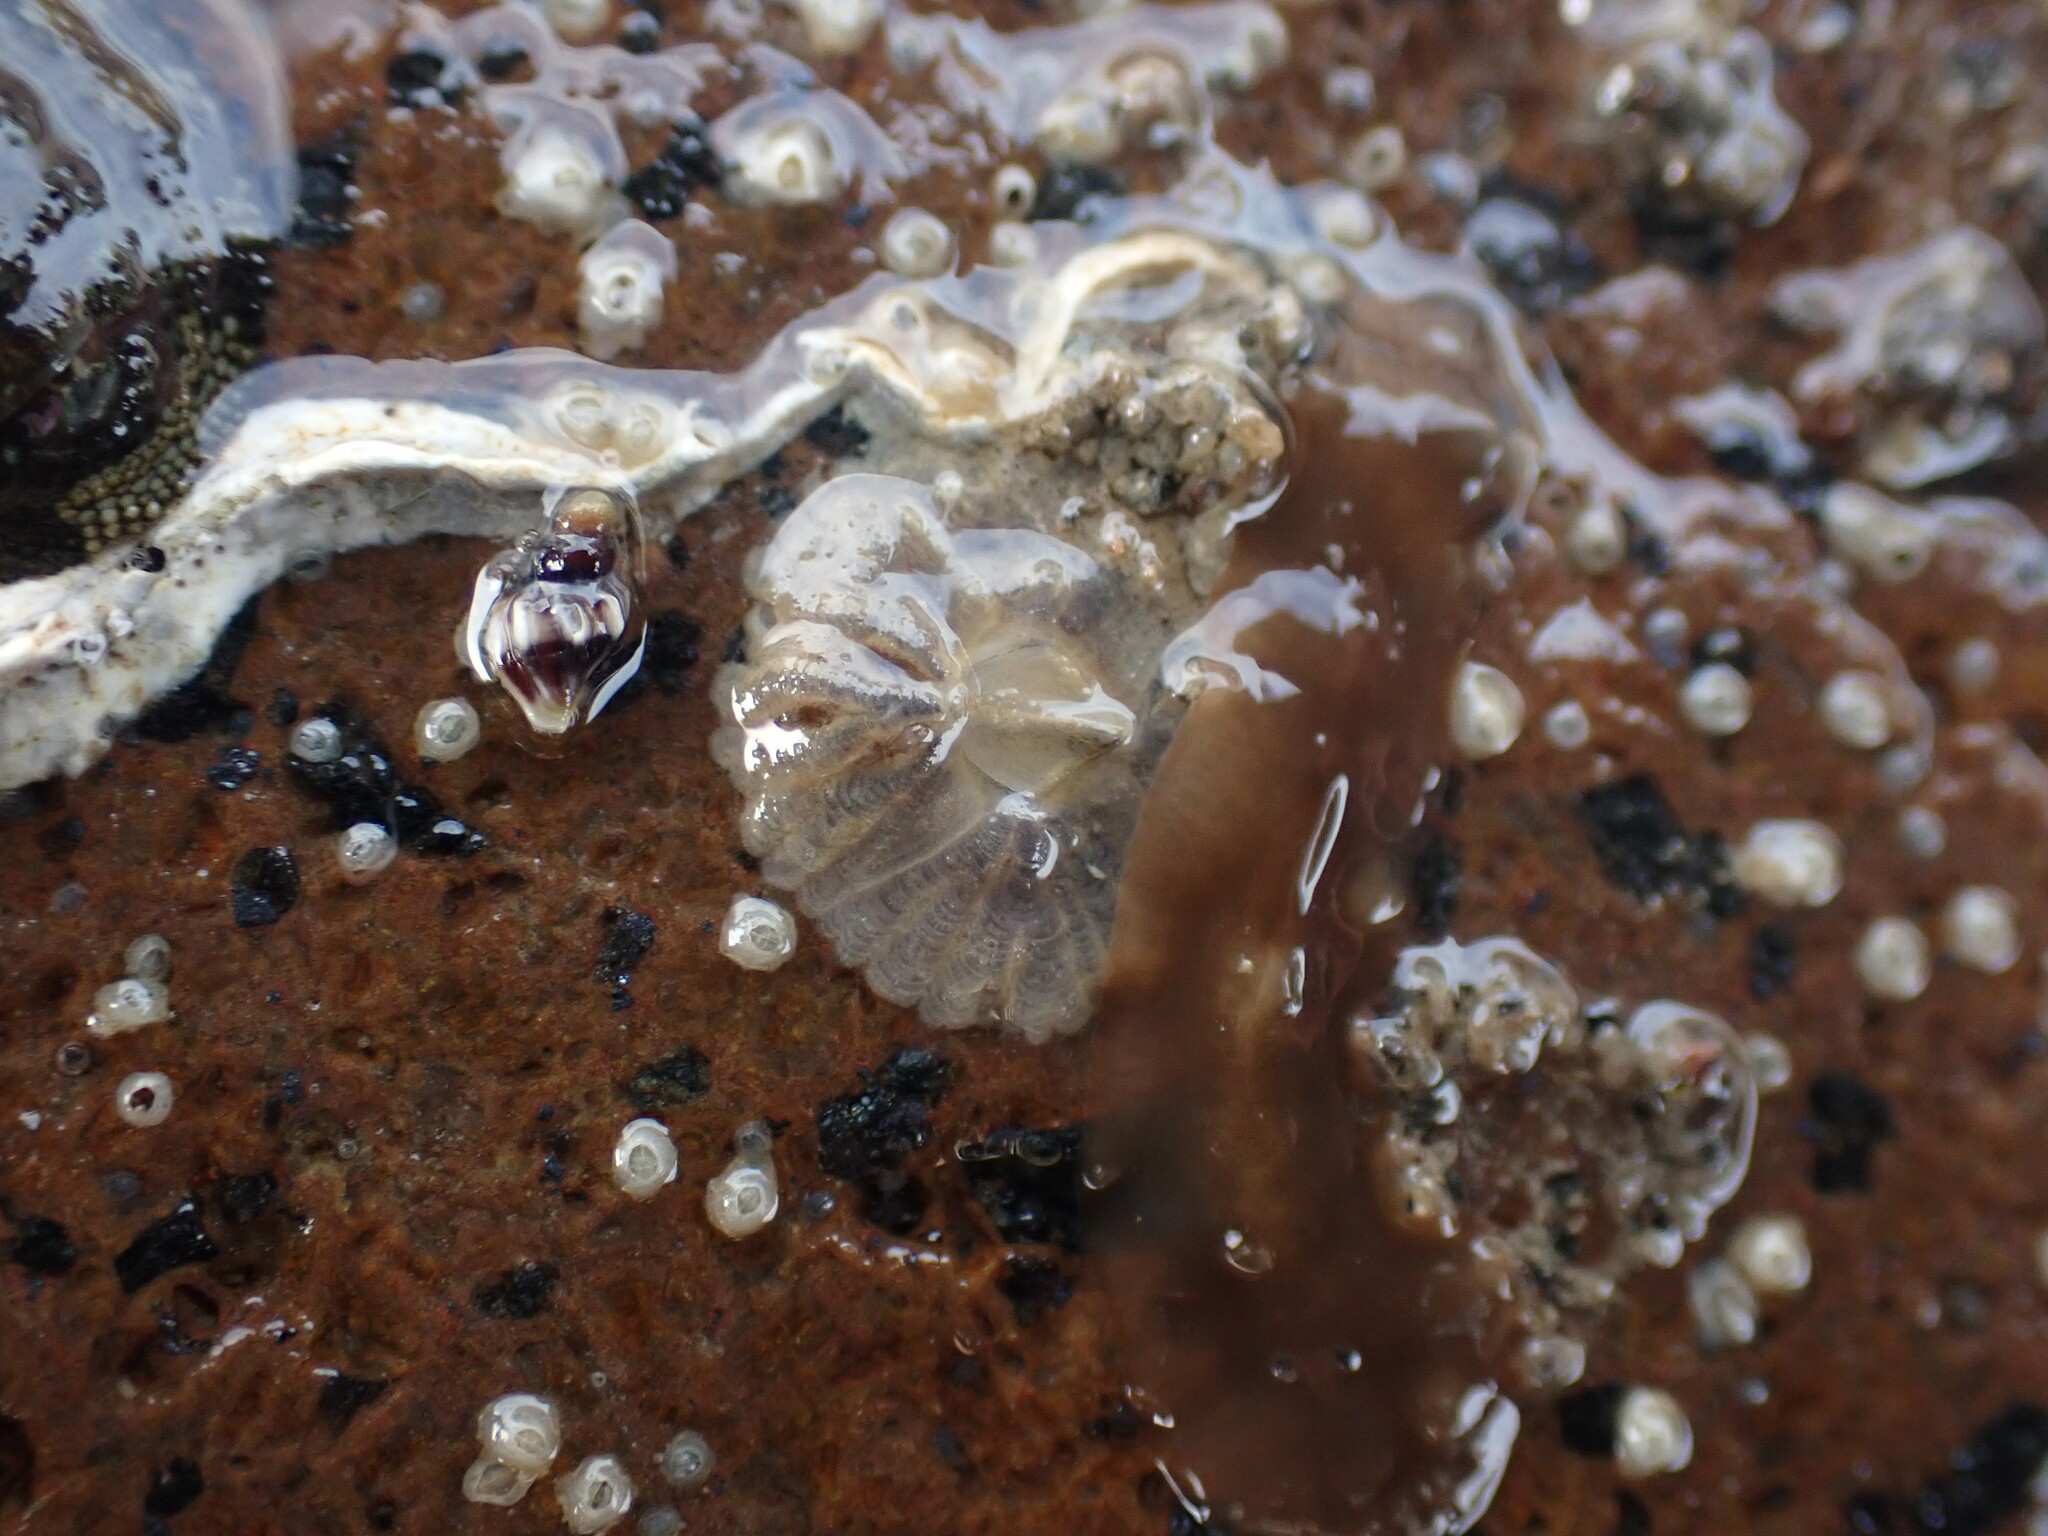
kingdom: Animalia
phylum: Arthropoda
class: Maxillopoda
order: Sessilia
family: Tetraclitidae
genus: Tetraclitella
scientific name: Tetraclitella depressa
